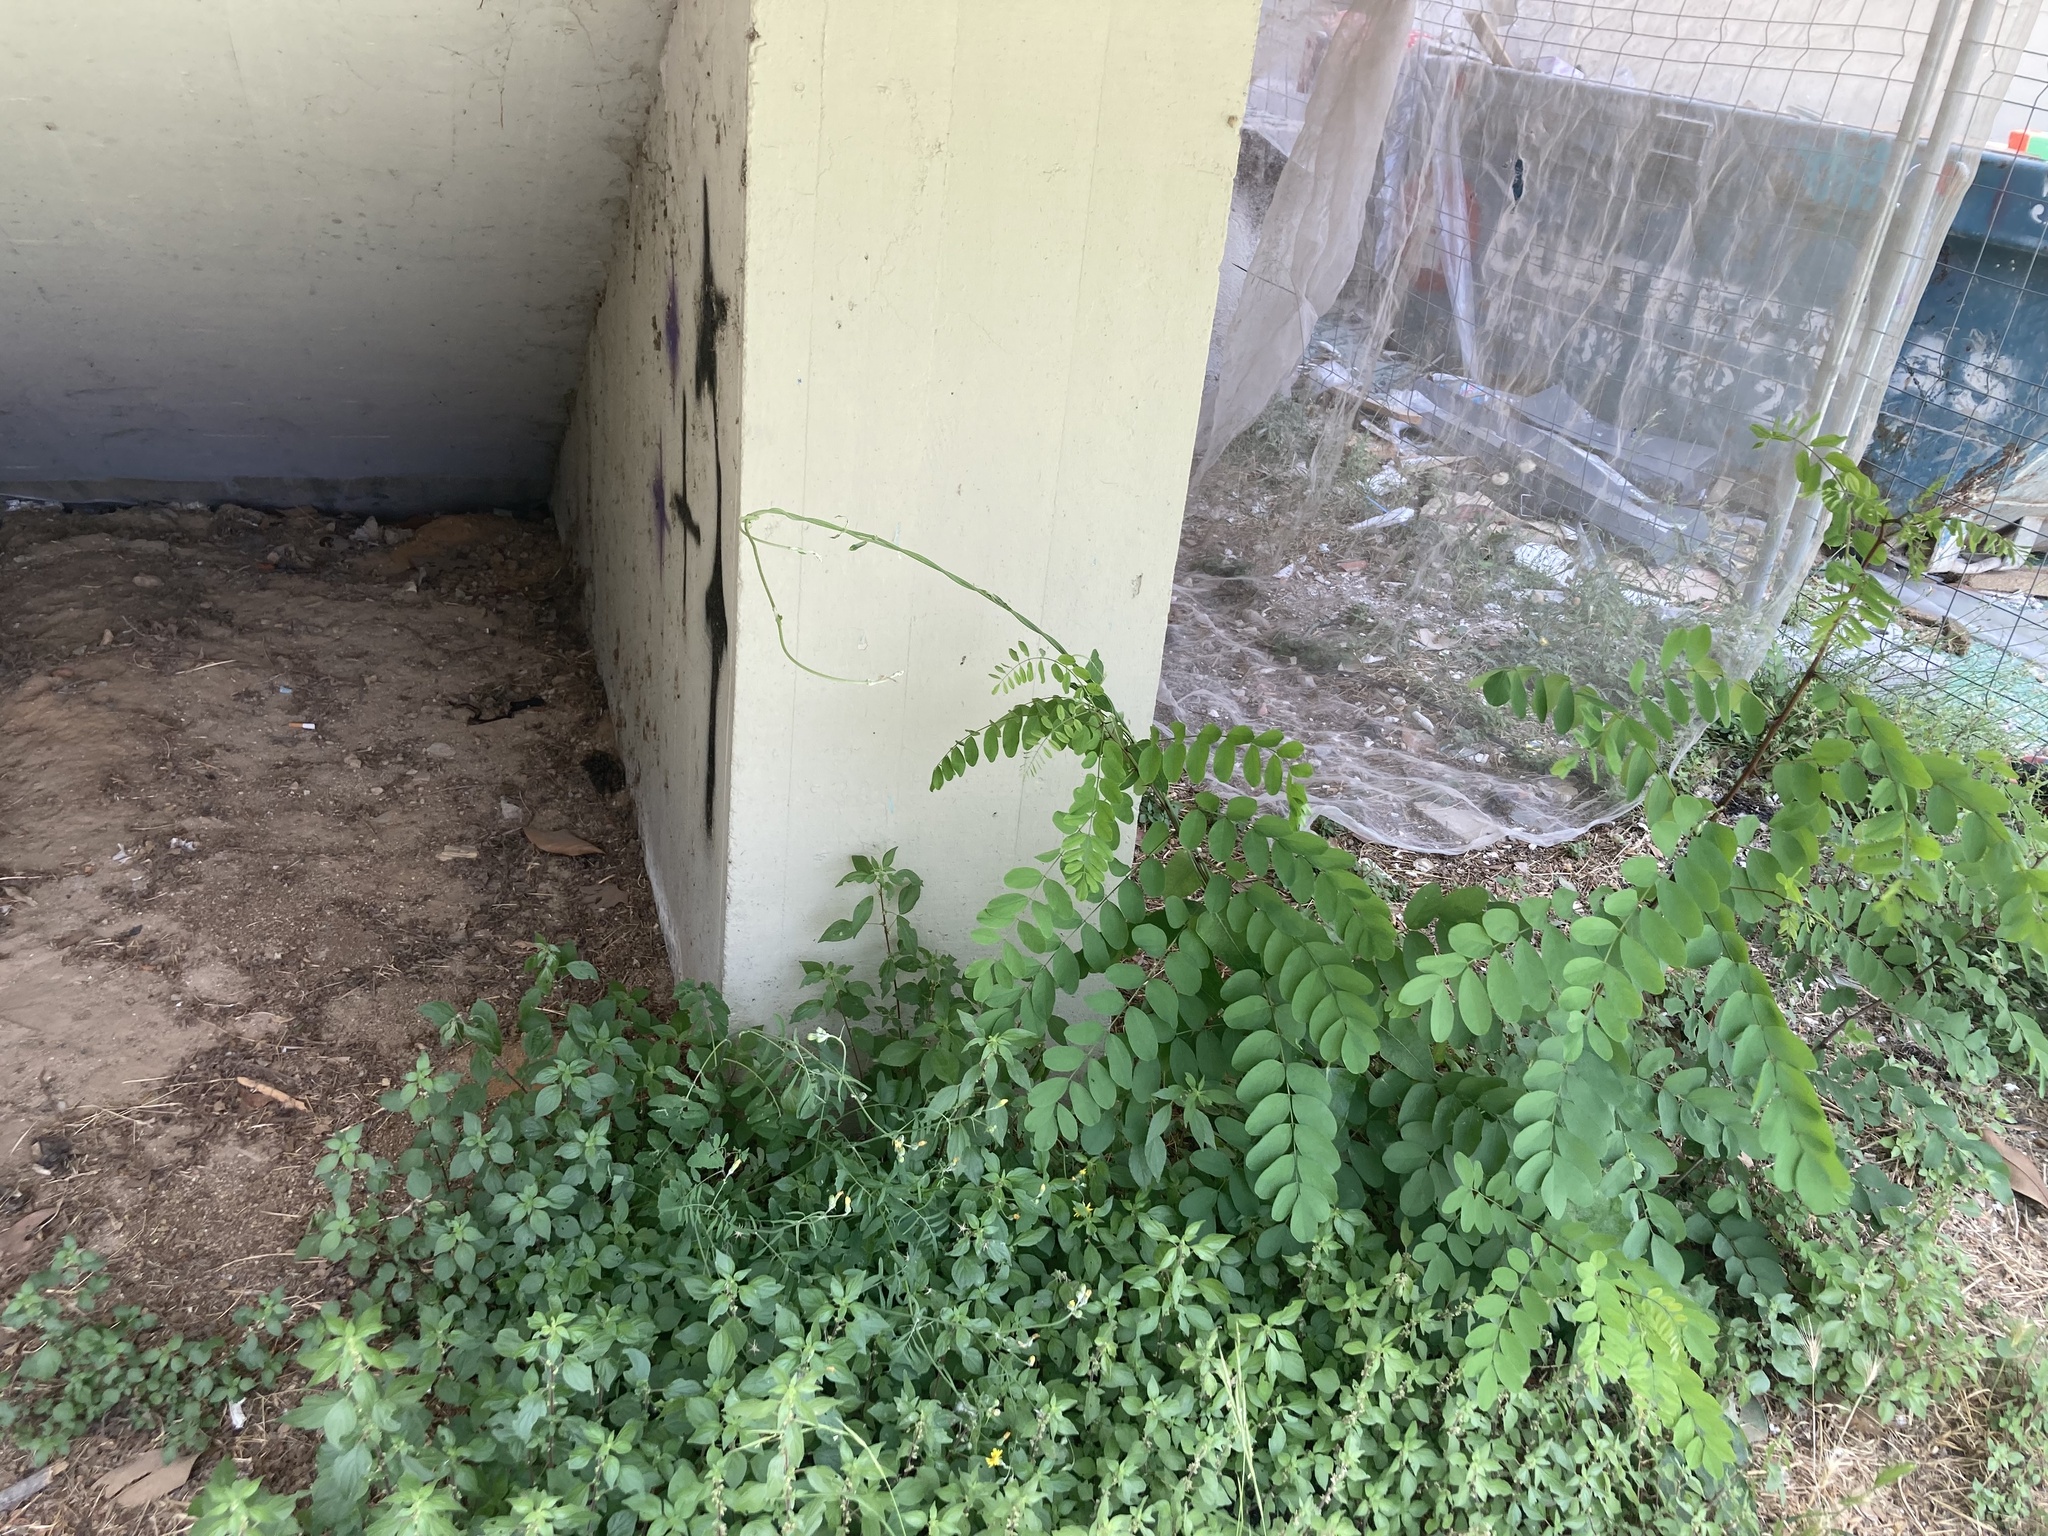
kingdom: Plantae
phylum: Tracheophyta
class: Magnoliopsida
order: Gentianales
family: Apocynaceae
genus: Araujia
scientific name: Araujia sericifera
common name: White bladderflower
